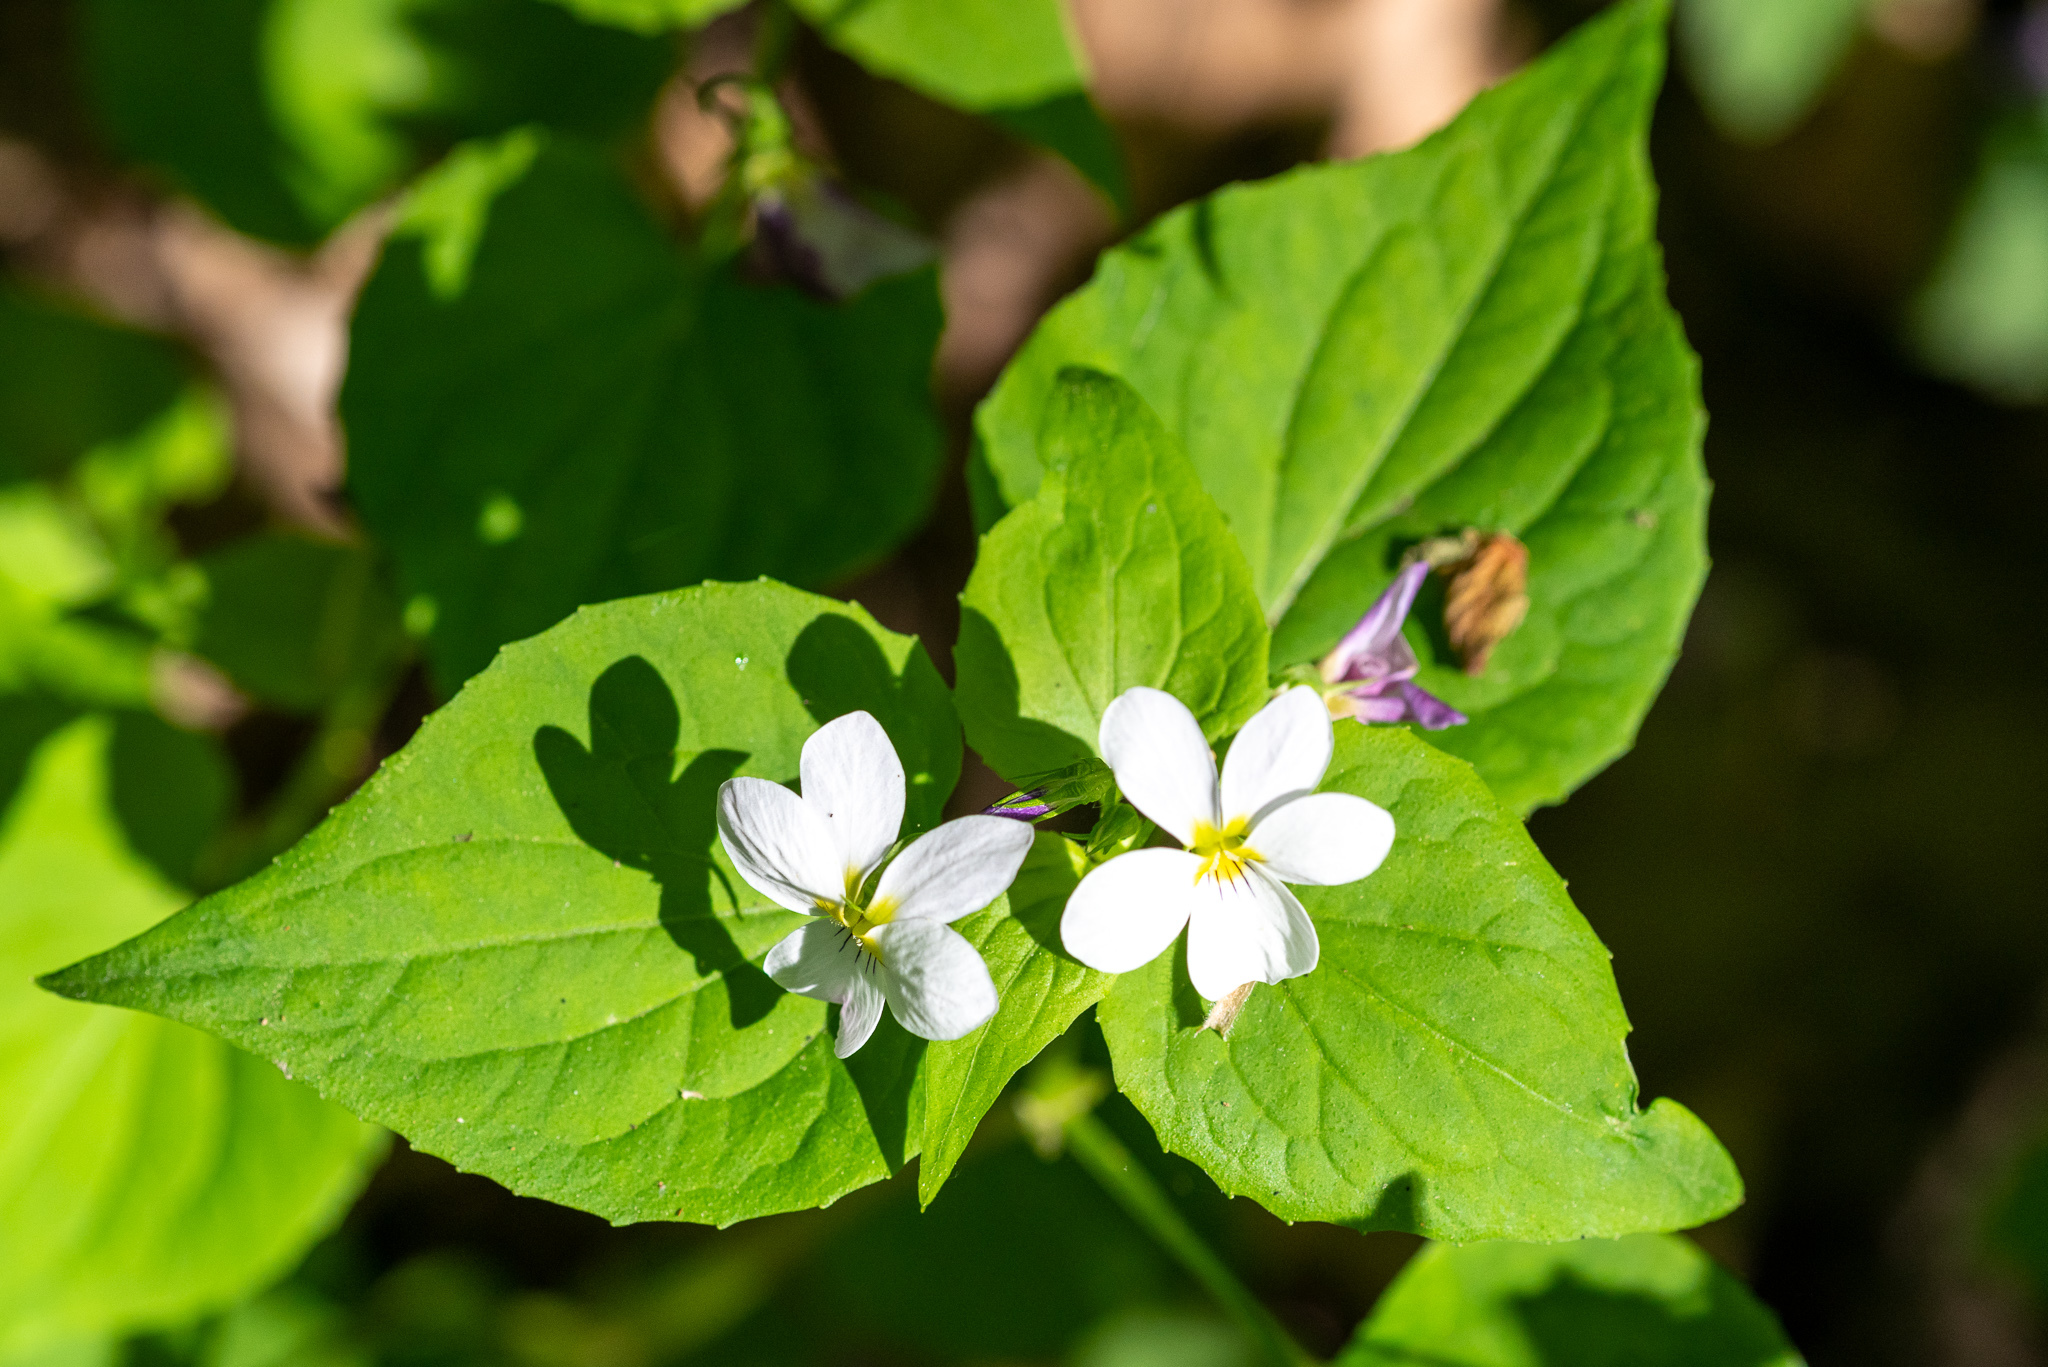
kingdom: Plantae
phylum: Tracheophyta
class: Magnoliopsida
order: Malpighiales
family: Violaceae
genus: Viola
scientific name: Viola canadensis
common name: Canada violet
